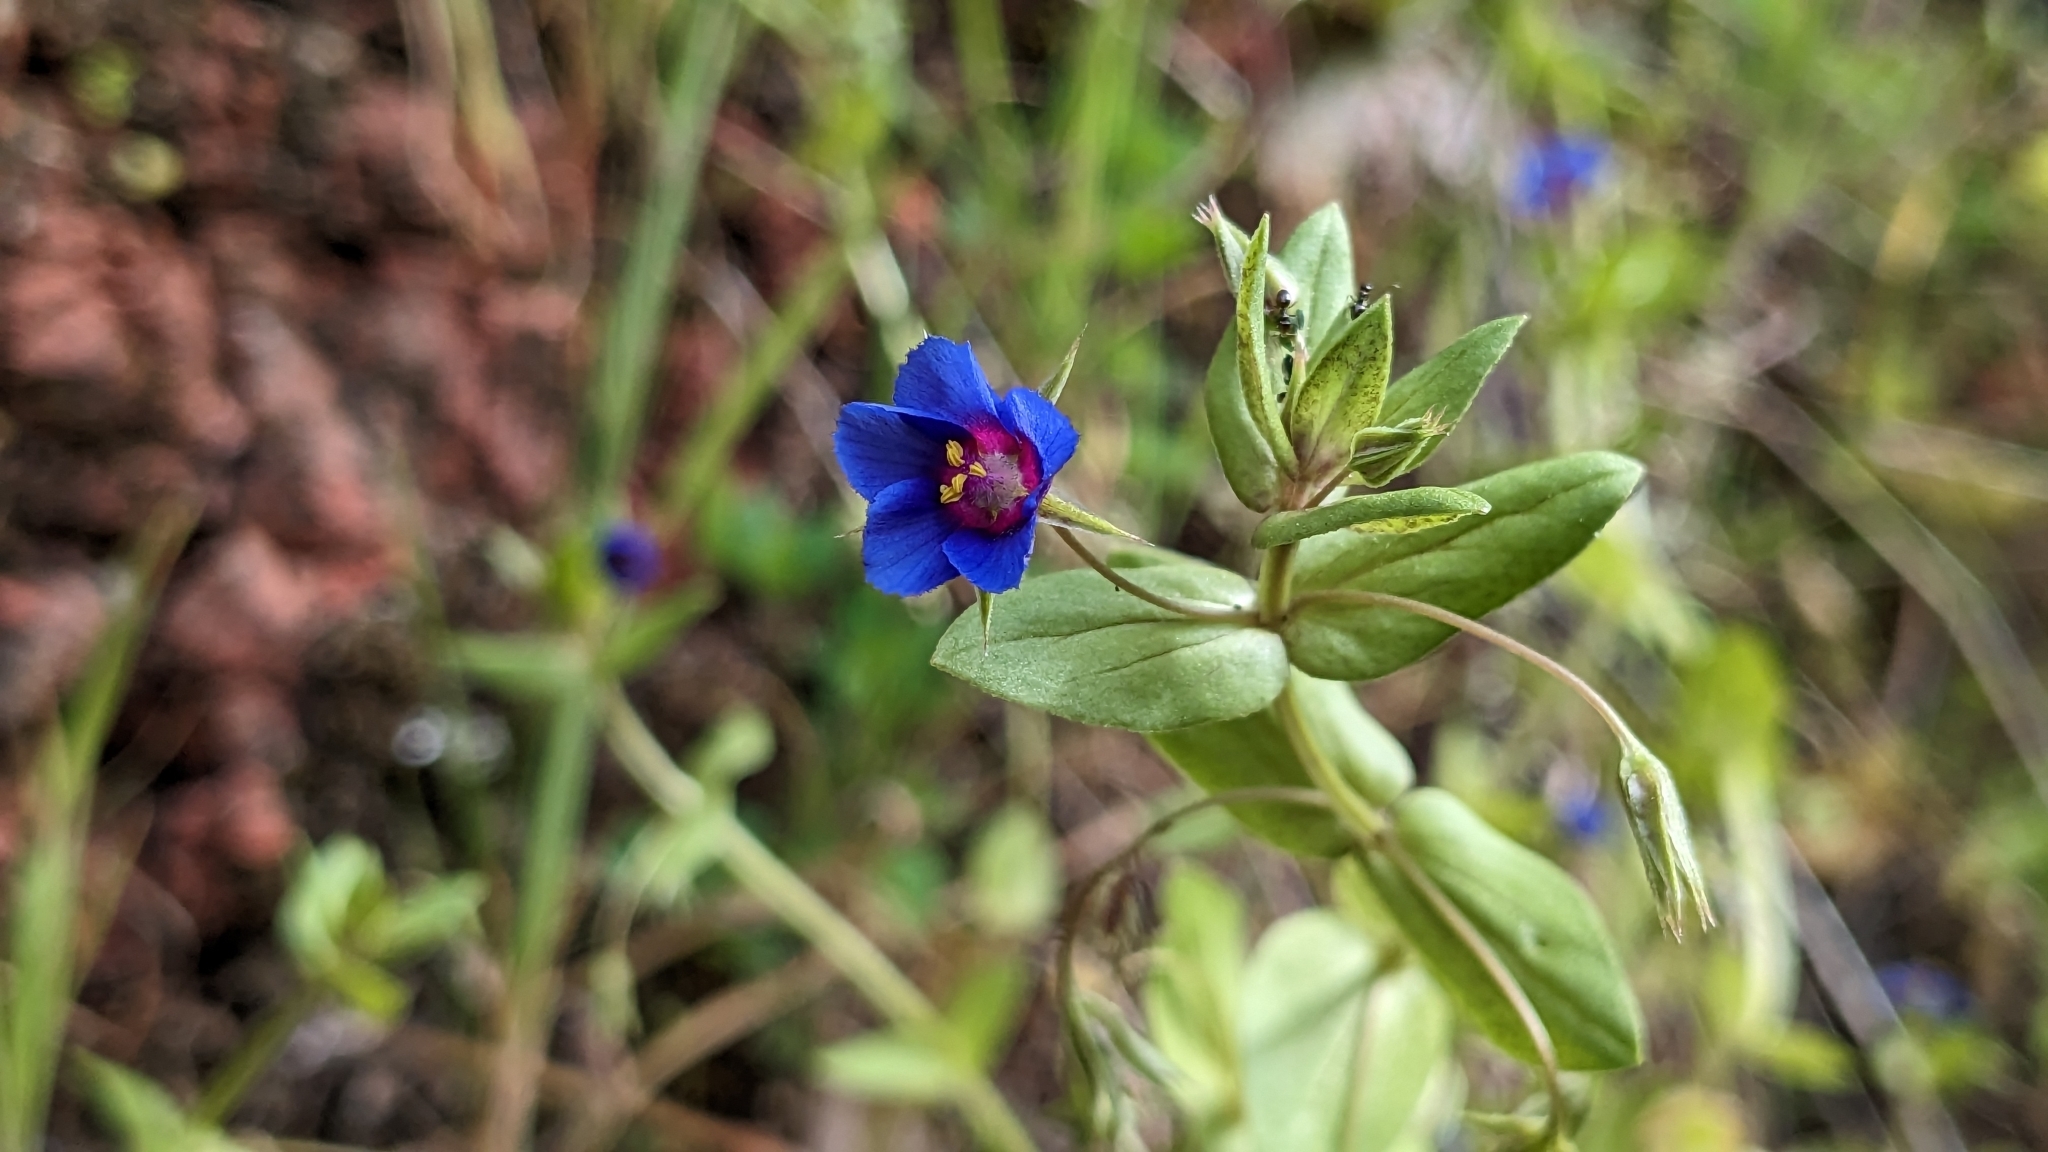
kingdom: Plantae
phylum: Tracheophyta
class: Magnoliopsida
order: Ericales
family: Primulaceae
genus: Lysimachia
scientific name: Lysimachia loeflingii
